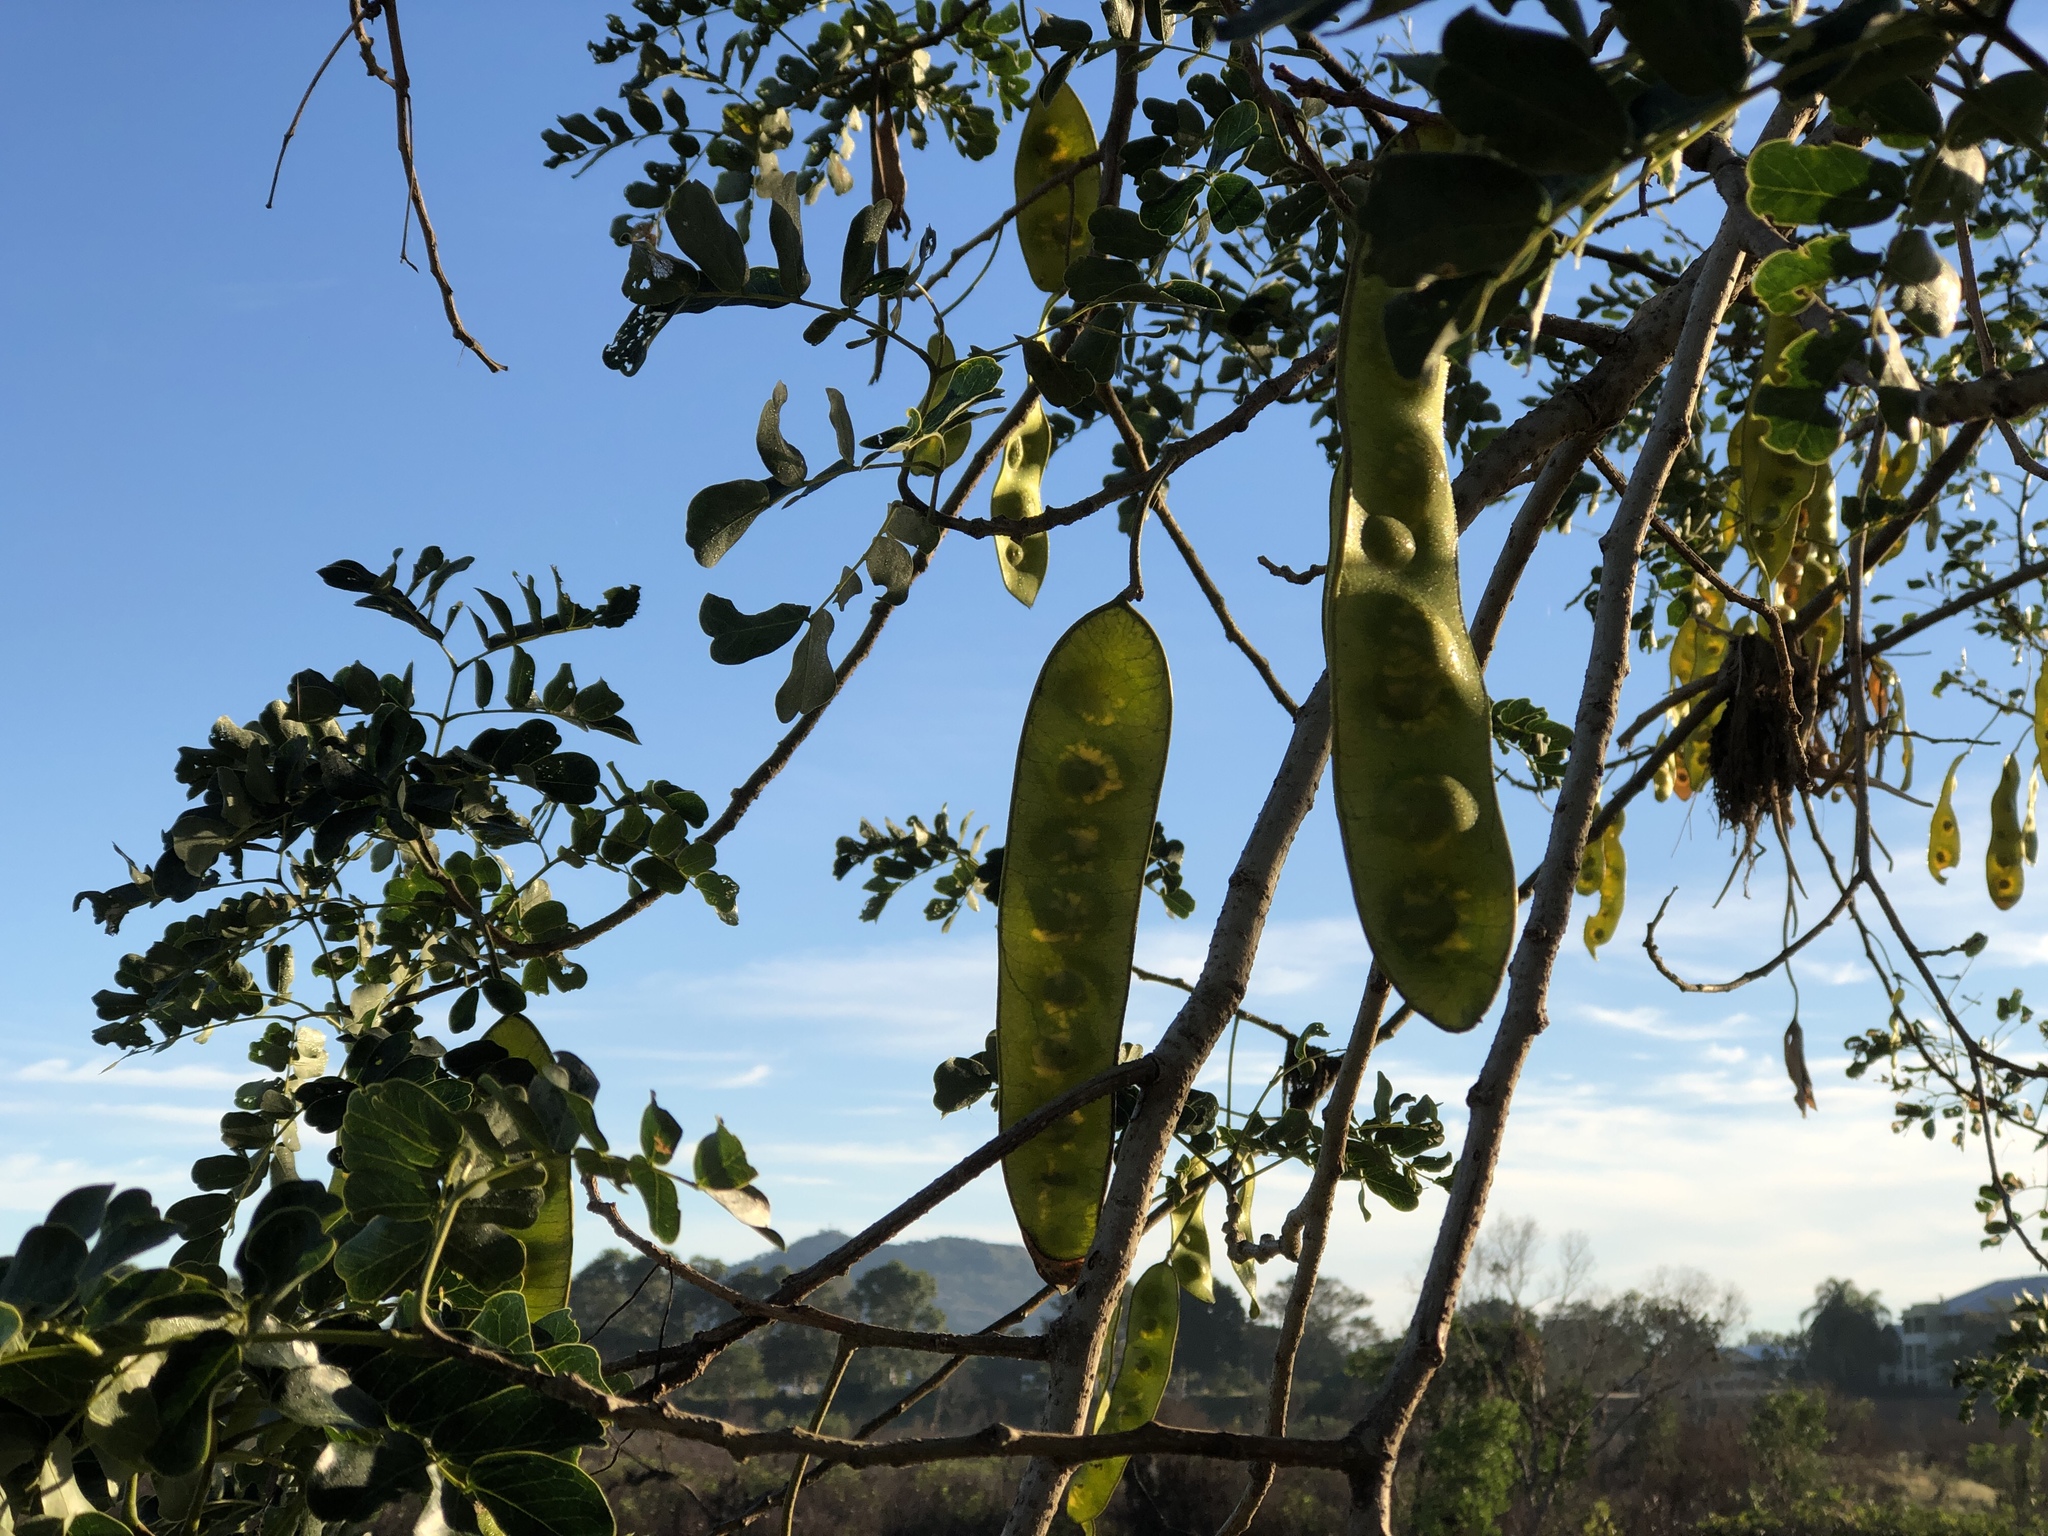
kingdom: Plantae
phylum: Tracheophyta
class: Magnoliopsida
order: Fabales
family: Fabaceae
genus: Albizia
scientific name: Albizia lebbeck
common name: Woman's tongue
